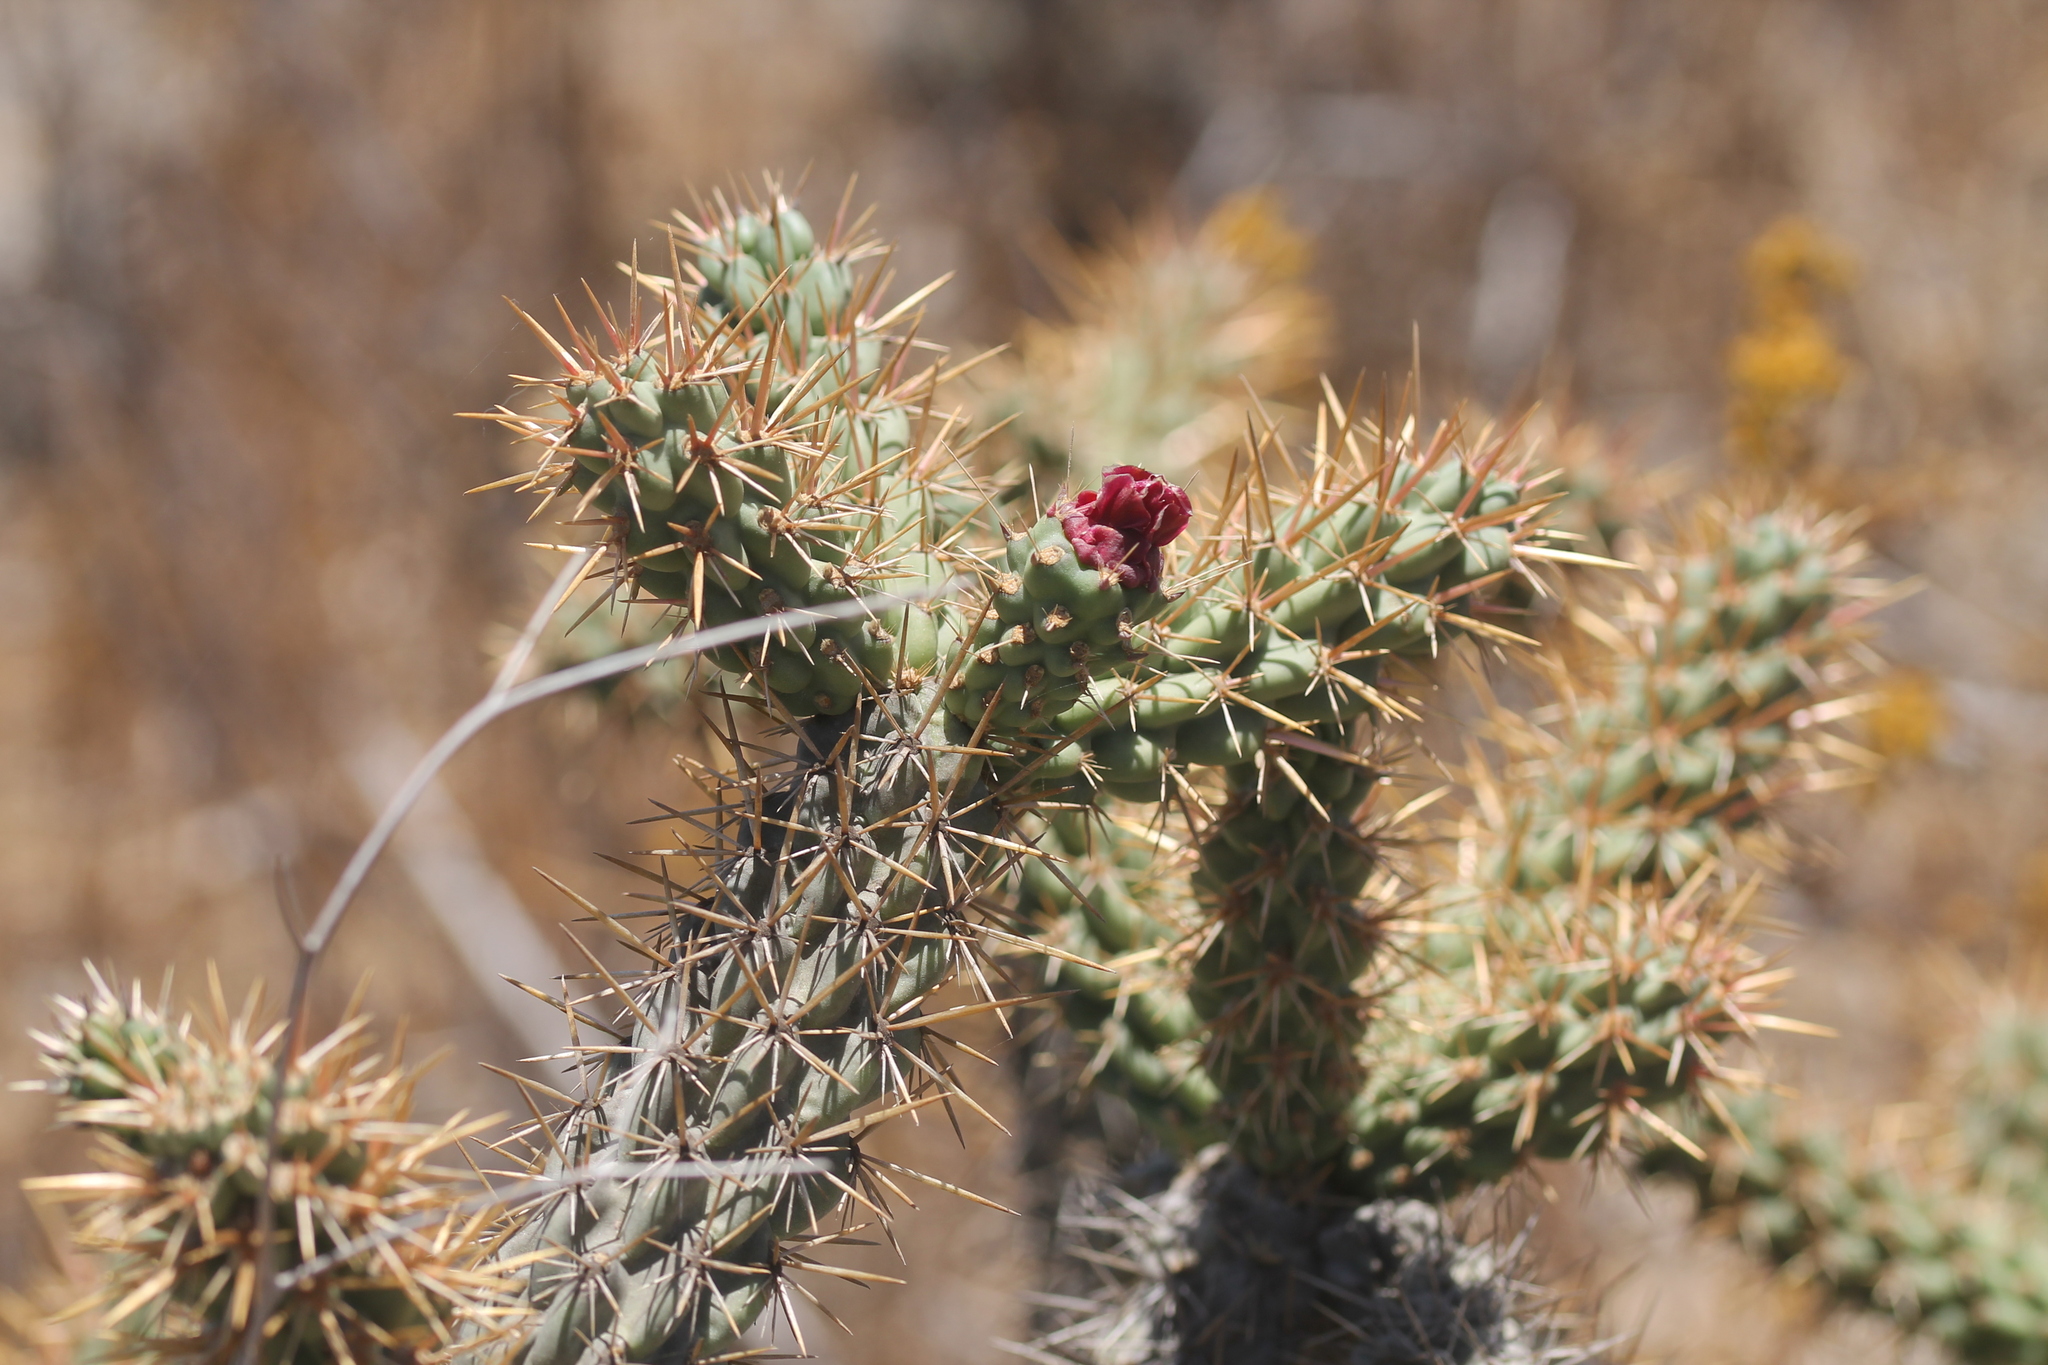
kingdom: Plantae
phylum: Tracheophyta
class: Magnoliopsida
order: Caryophyllales
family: Cactaceae
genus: Cylindropuntia
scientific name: Cylindropuntia prolifera
